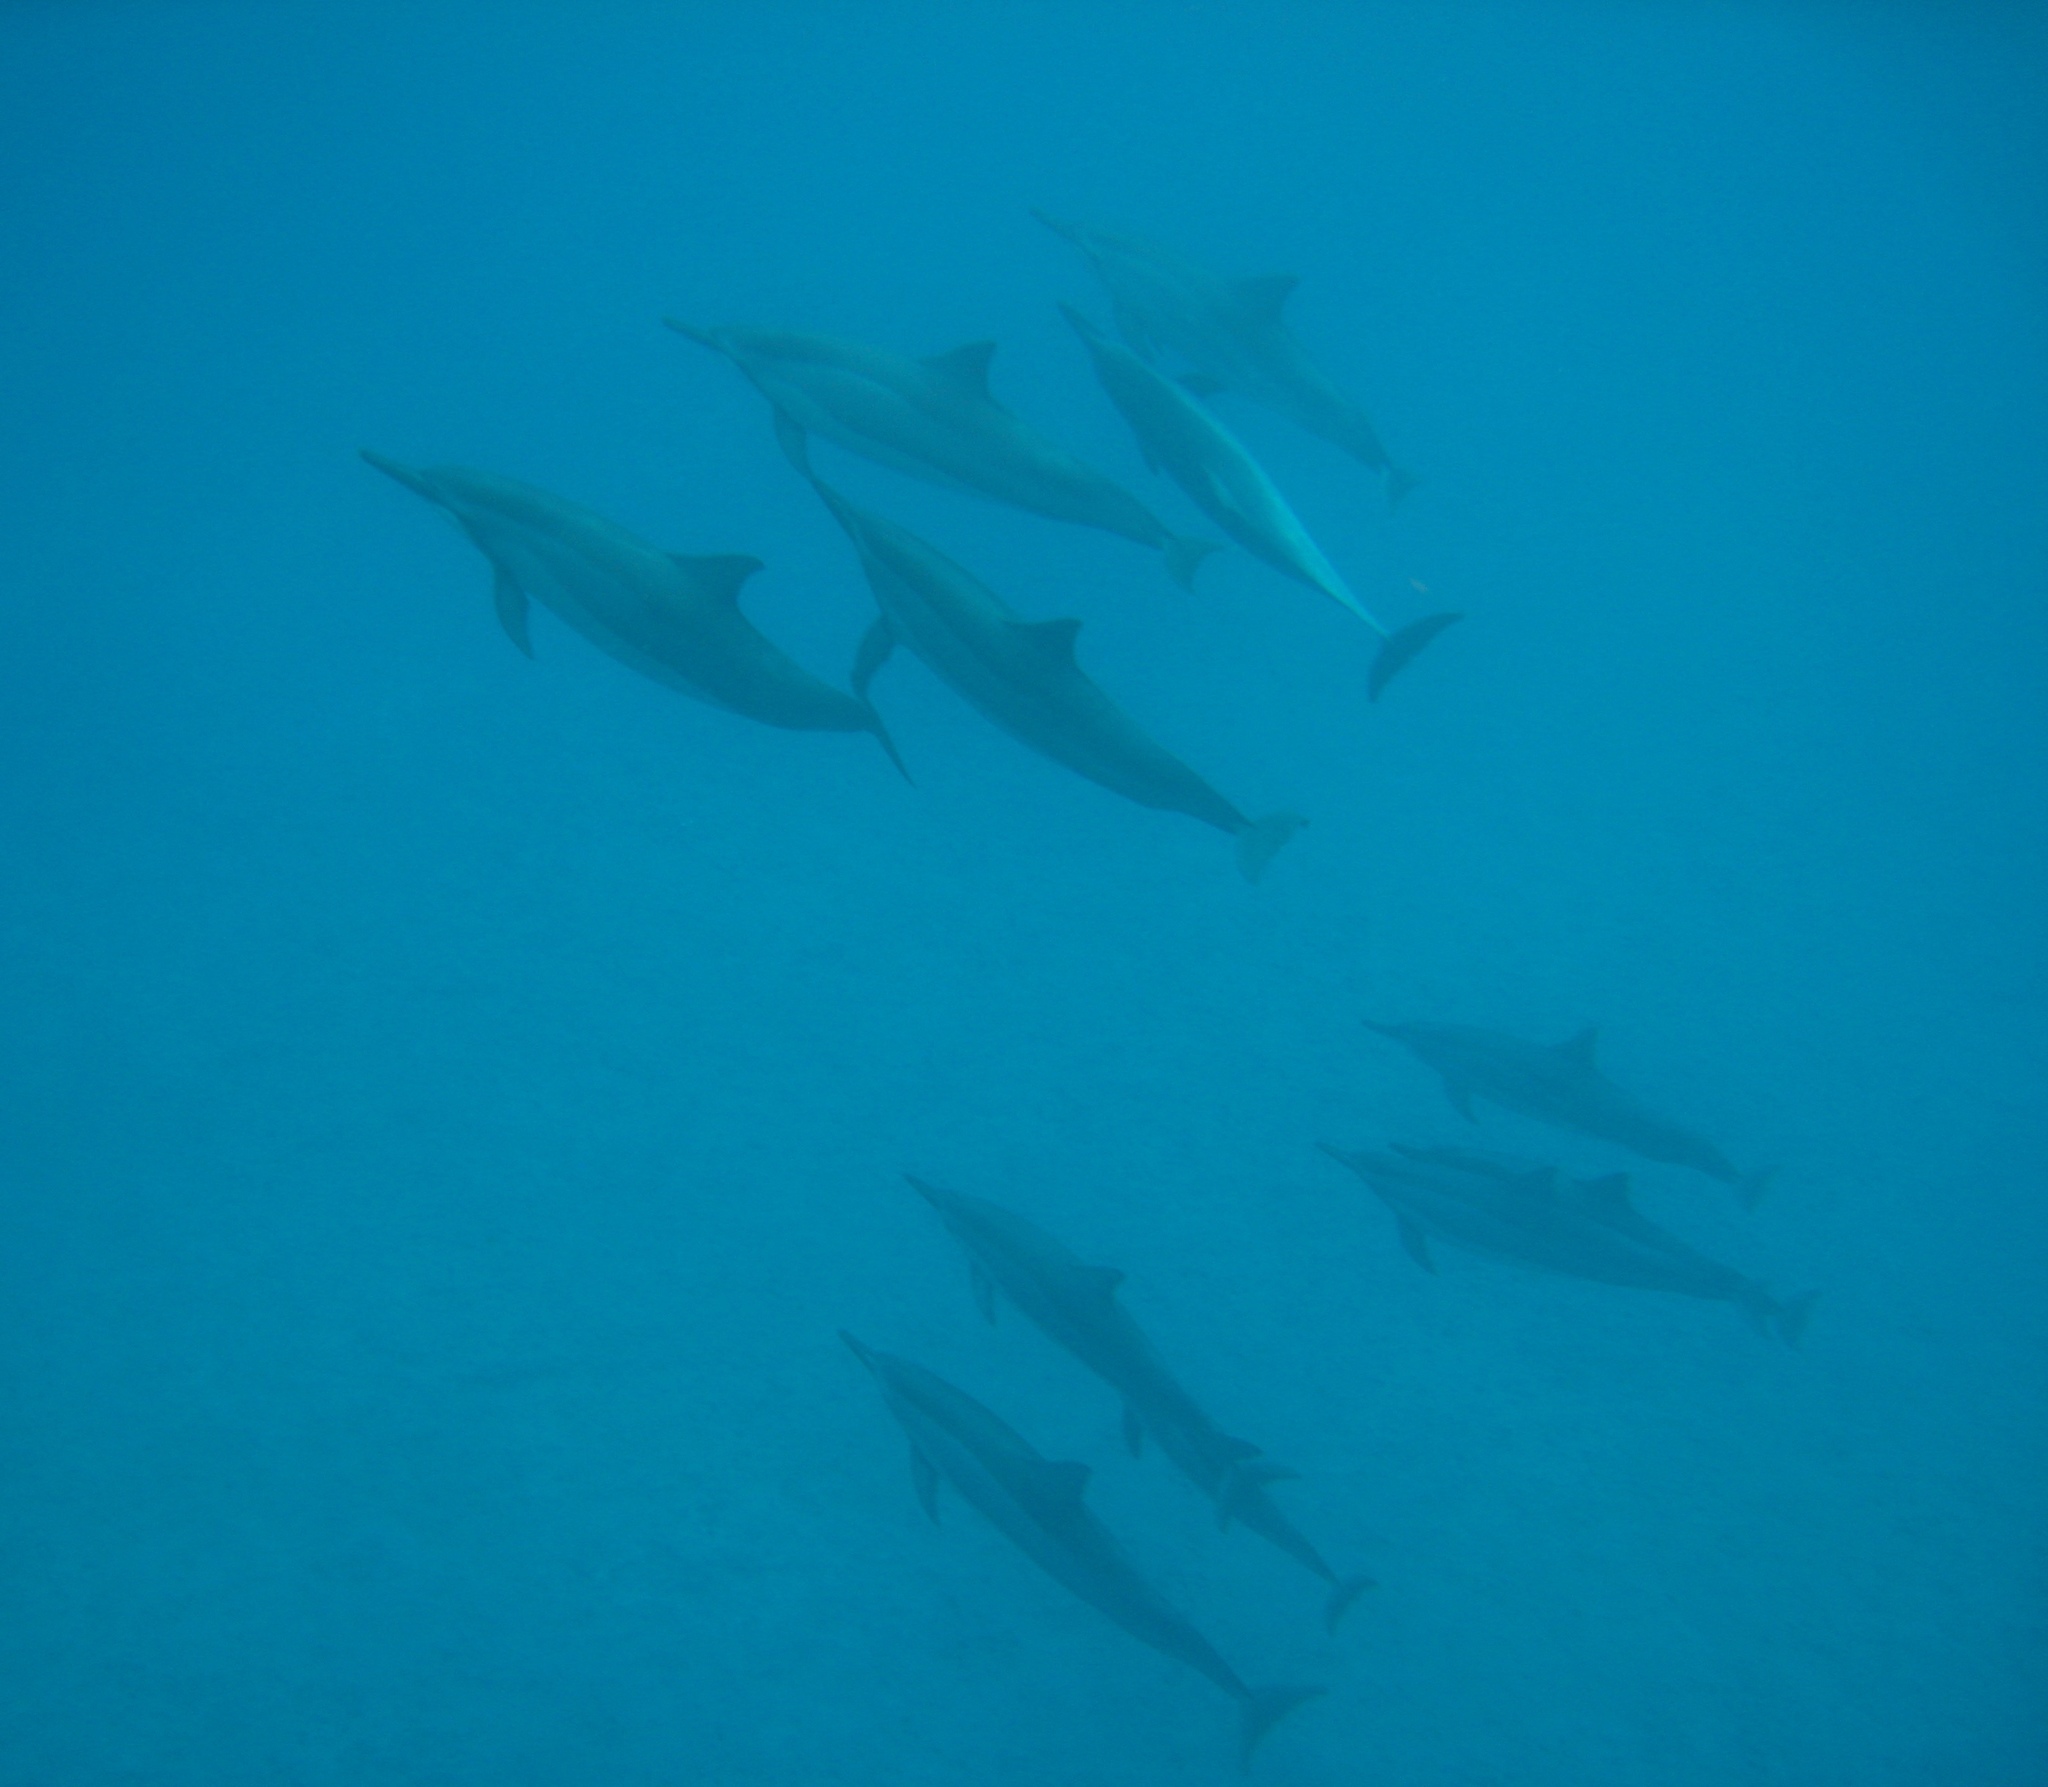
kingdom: Animalia
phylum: Chordata
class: Mammalia
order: Cetacea
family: Delphinidae
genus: Stenella
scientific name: Stenella longirostris
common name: Spinner dolphin
